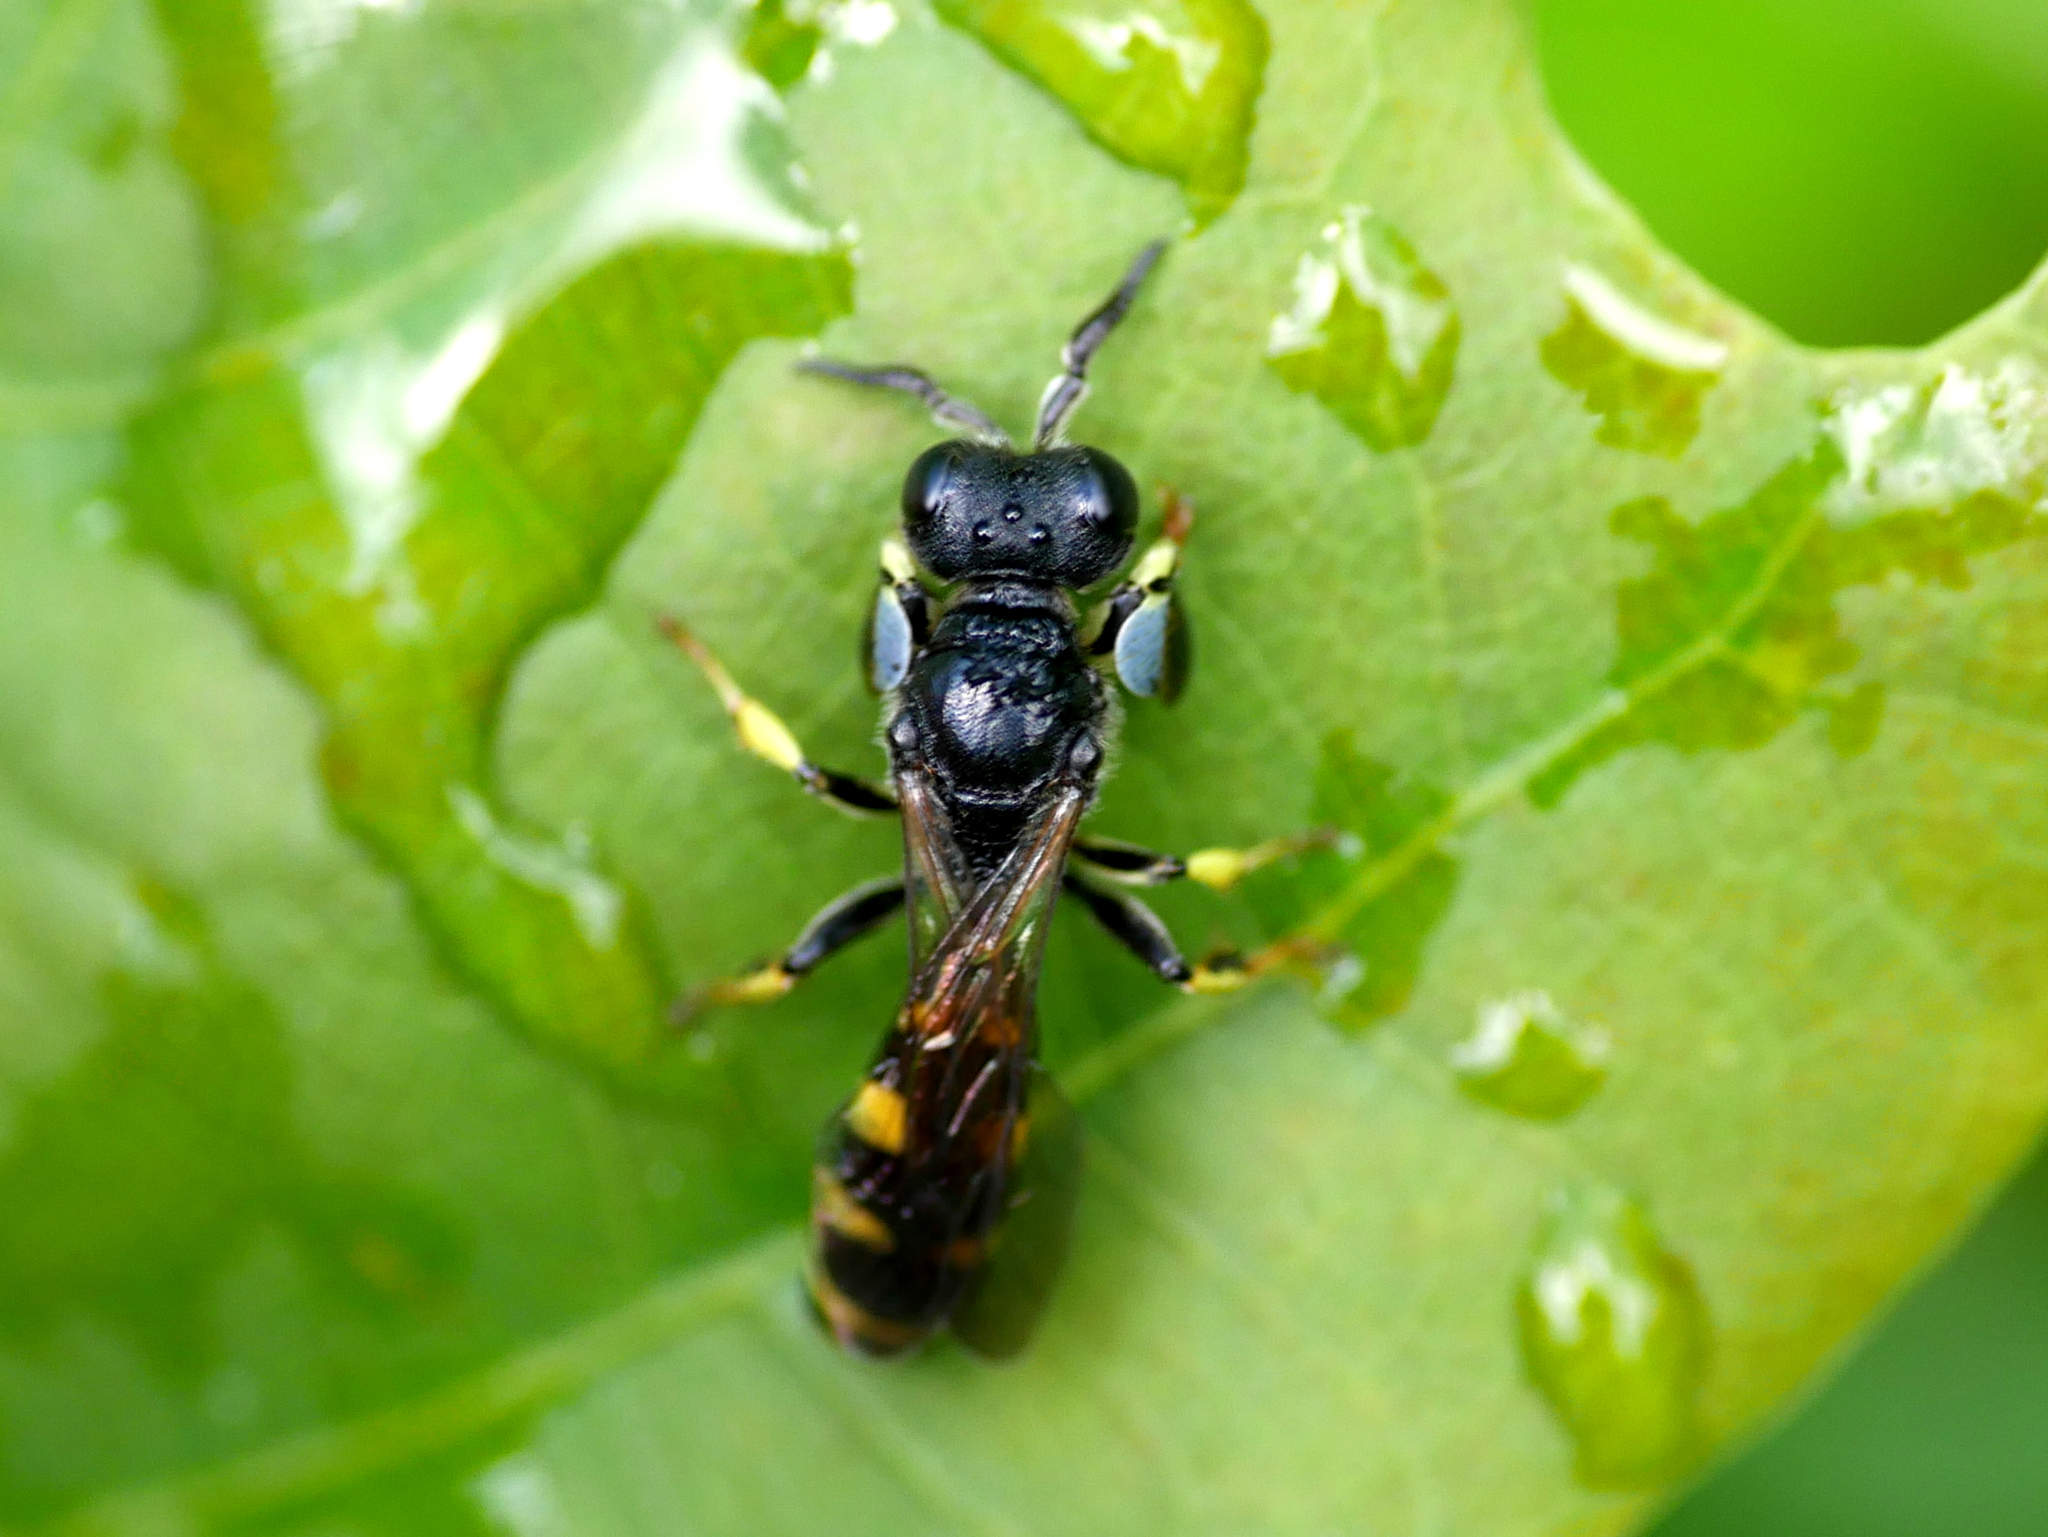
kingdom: Animalia
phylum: Arthropoda
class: Insecta
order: Hymenoptera
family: Crabronidae
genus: Crabro
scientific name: Crabro peltarius
